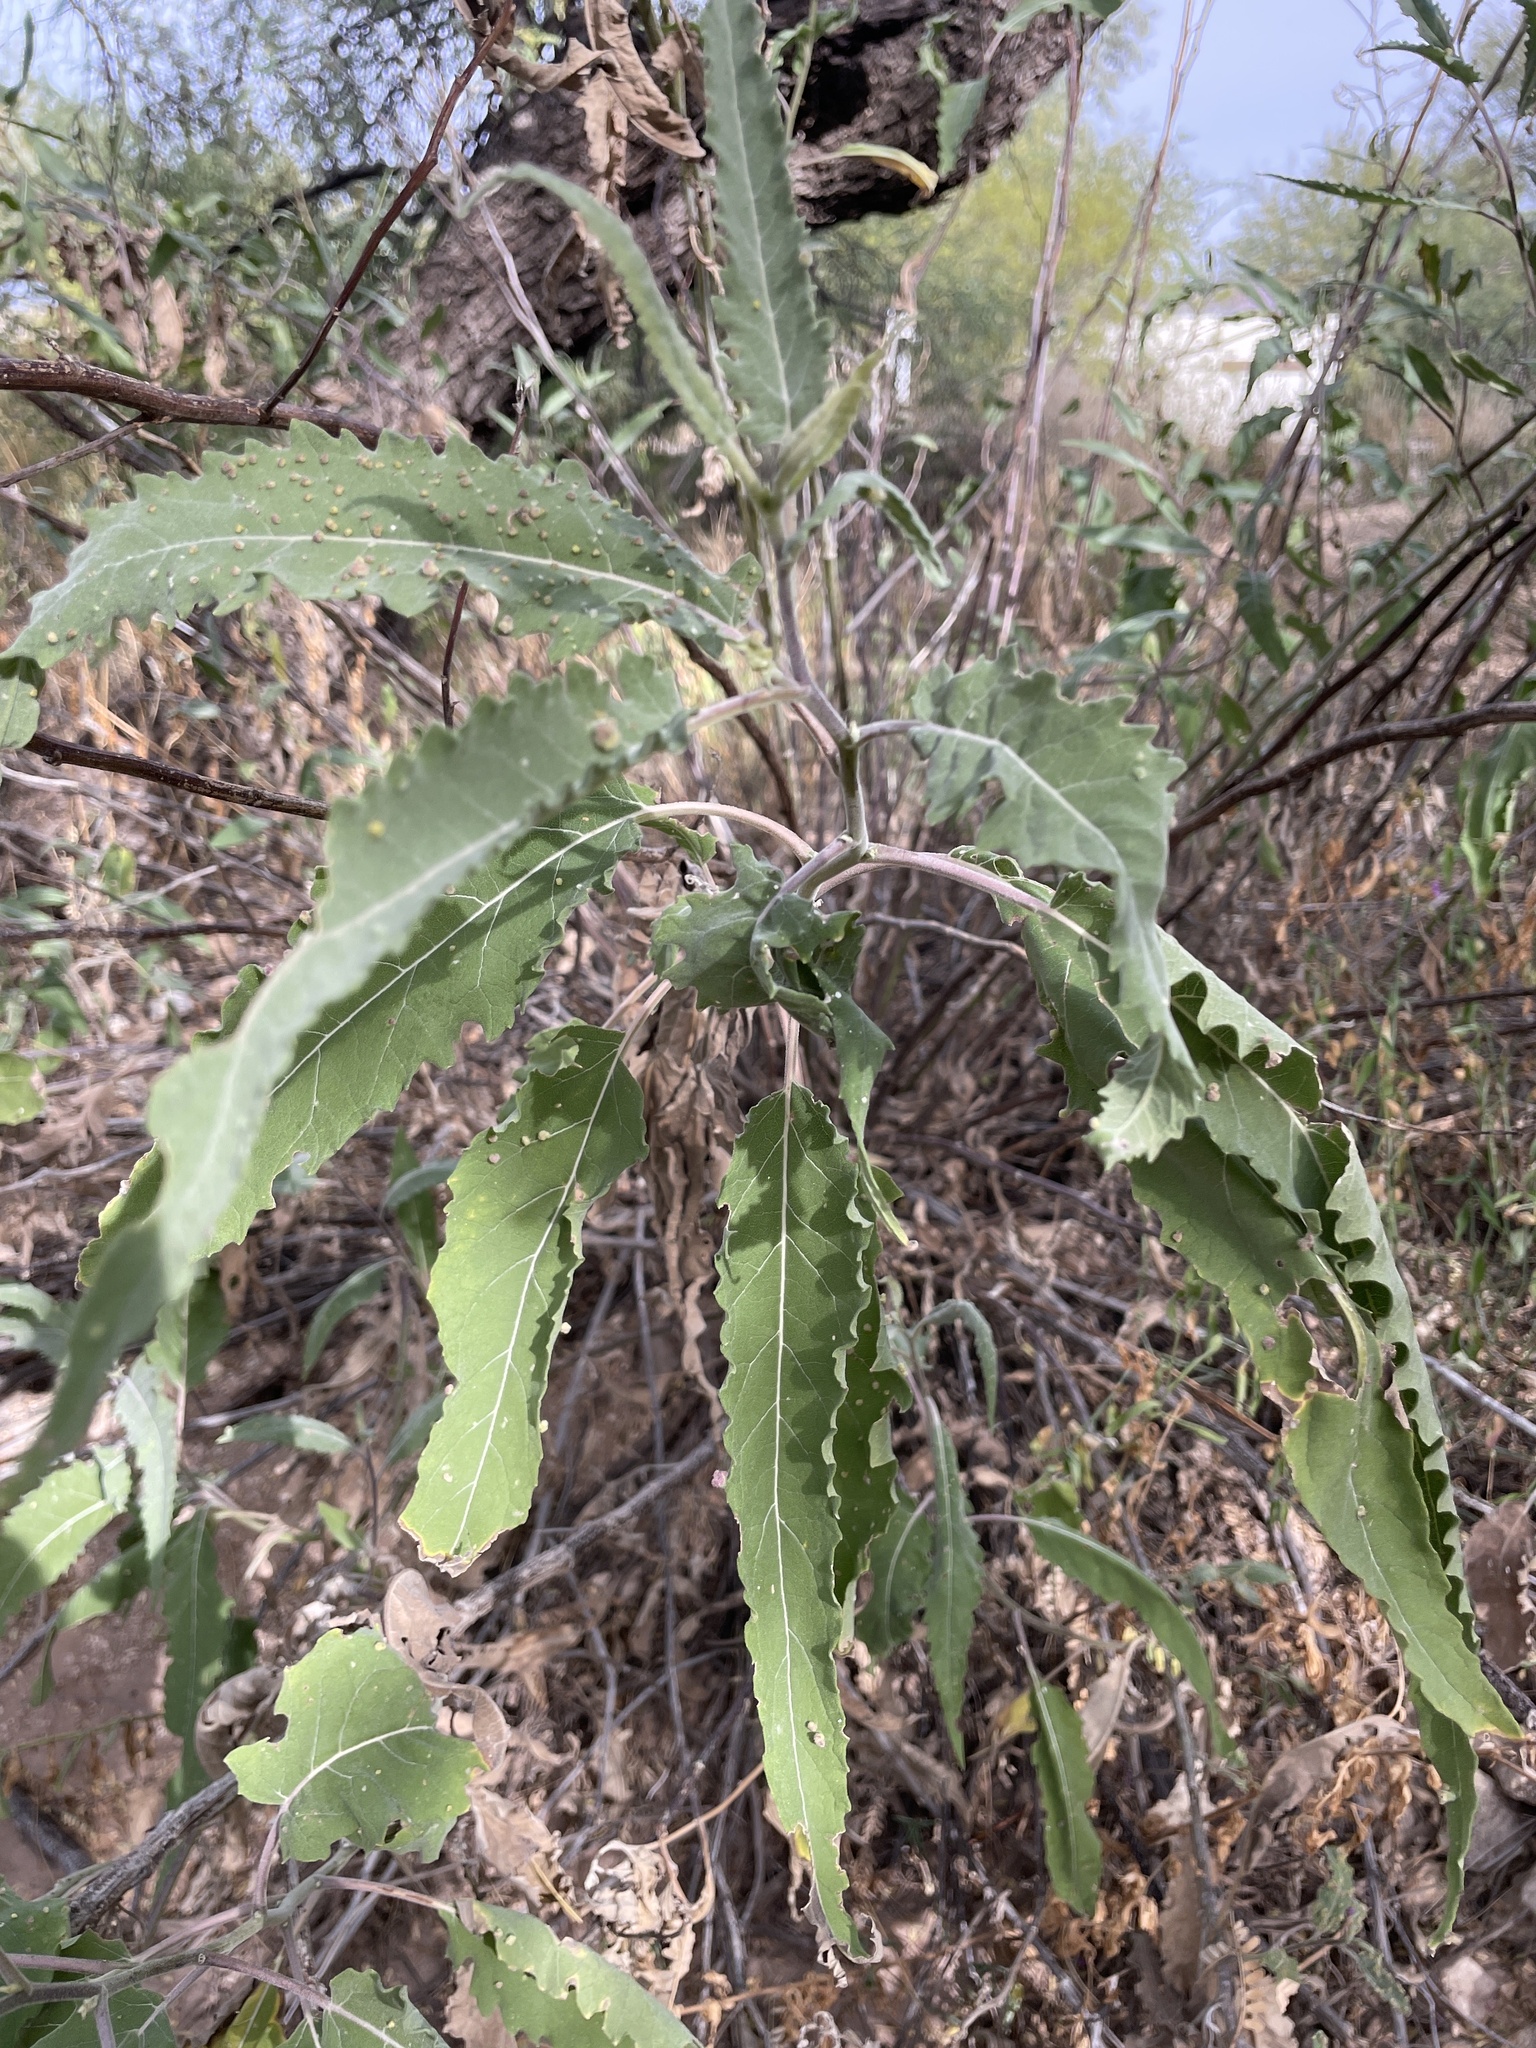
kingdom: Plantae
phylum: Tracheophyta
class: Magnoliopsida
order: Asterales
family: Asteraceae
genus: Ambrosia
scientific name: Ambrosia ambrosioides
